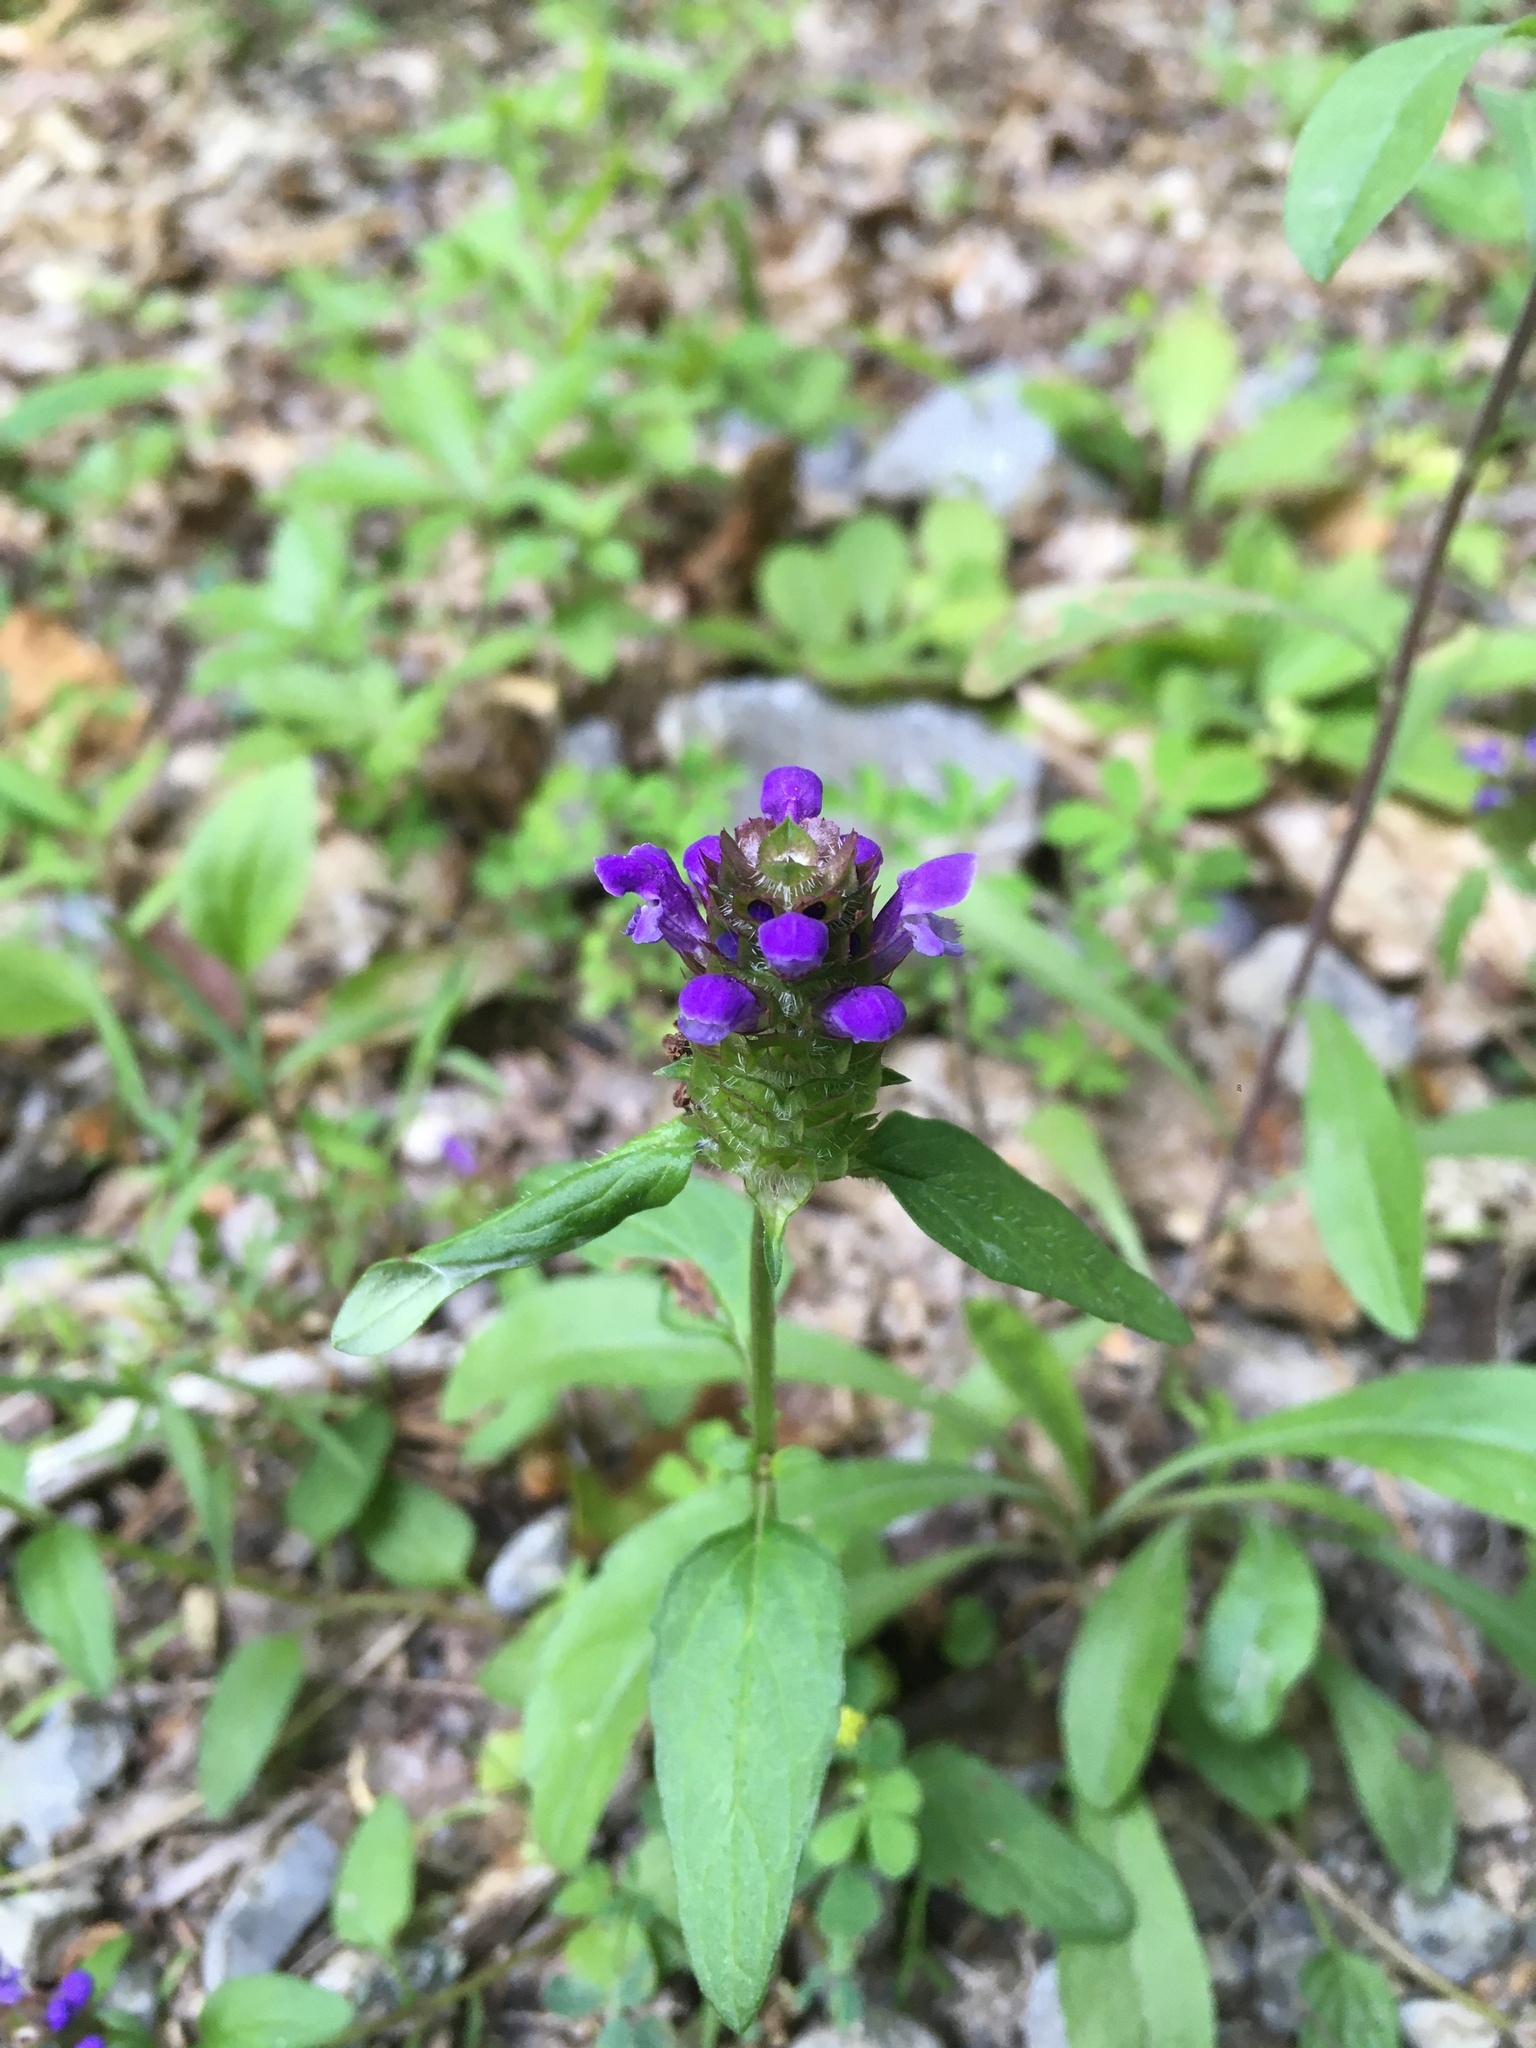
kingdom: Plantae
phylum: Tracheophyta
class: Magnoliopsida
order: Lamiales
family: Lamiaceae
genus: Prunella
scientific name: Prunella vulgaris
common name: Heal-all
